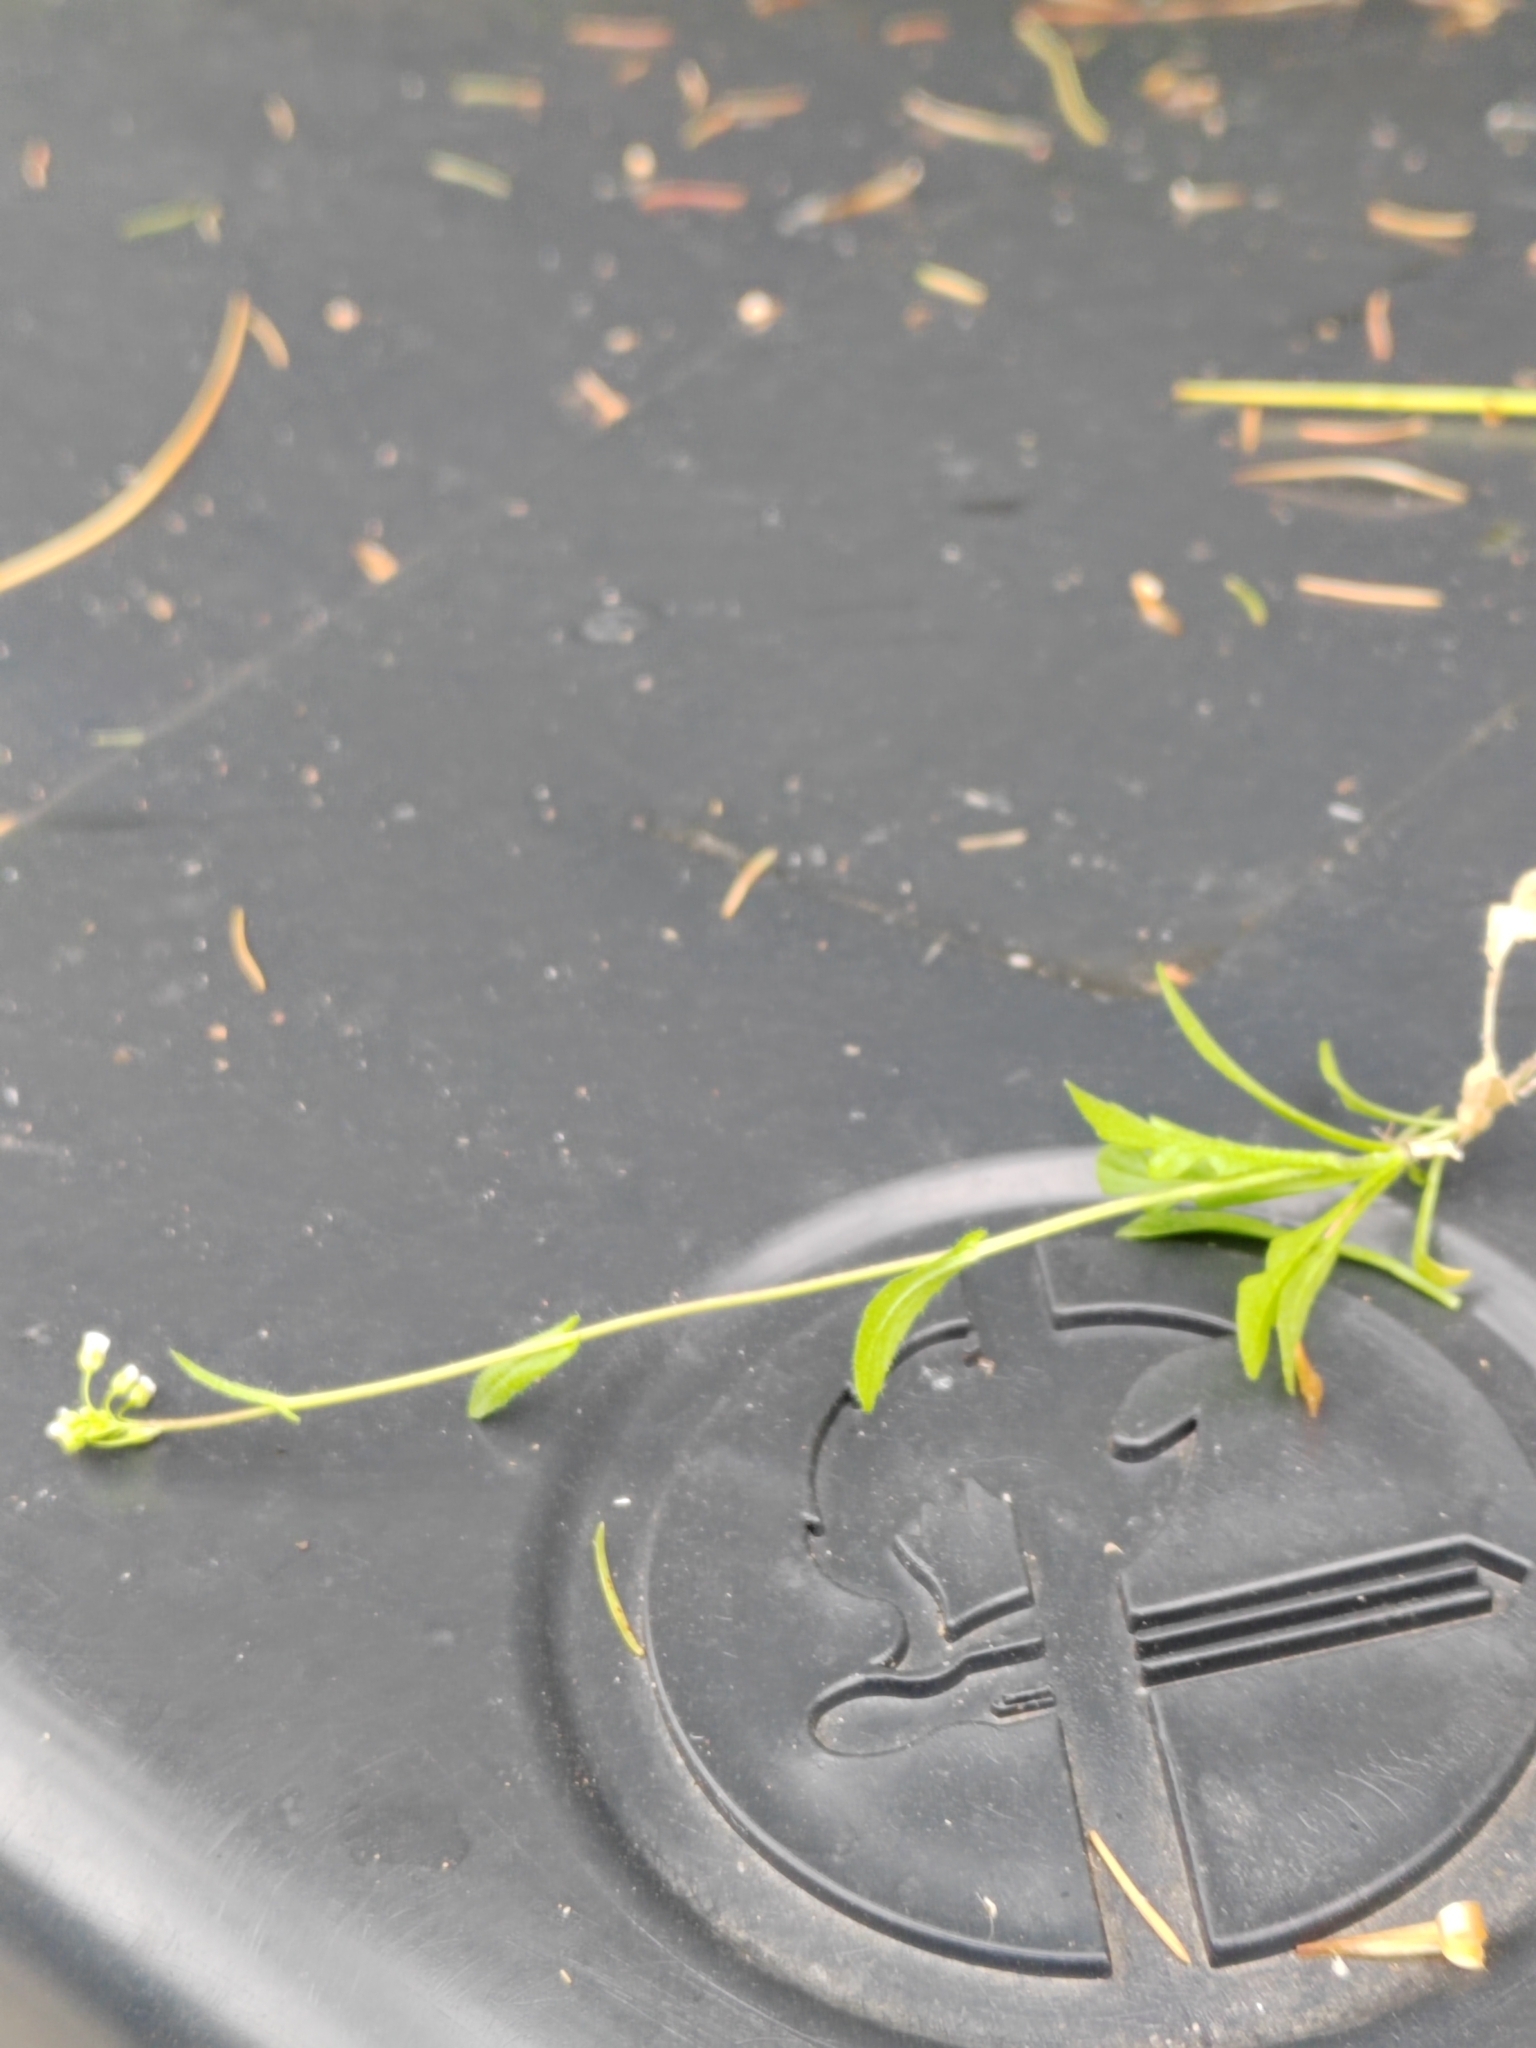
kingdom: Plantae
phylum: Tracheophyta
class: Magnoliopsida
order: Brassicales
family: Brassicaceae
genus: Capsella
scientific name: Capsella bursa-pastoris
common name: Shepherd's purse
